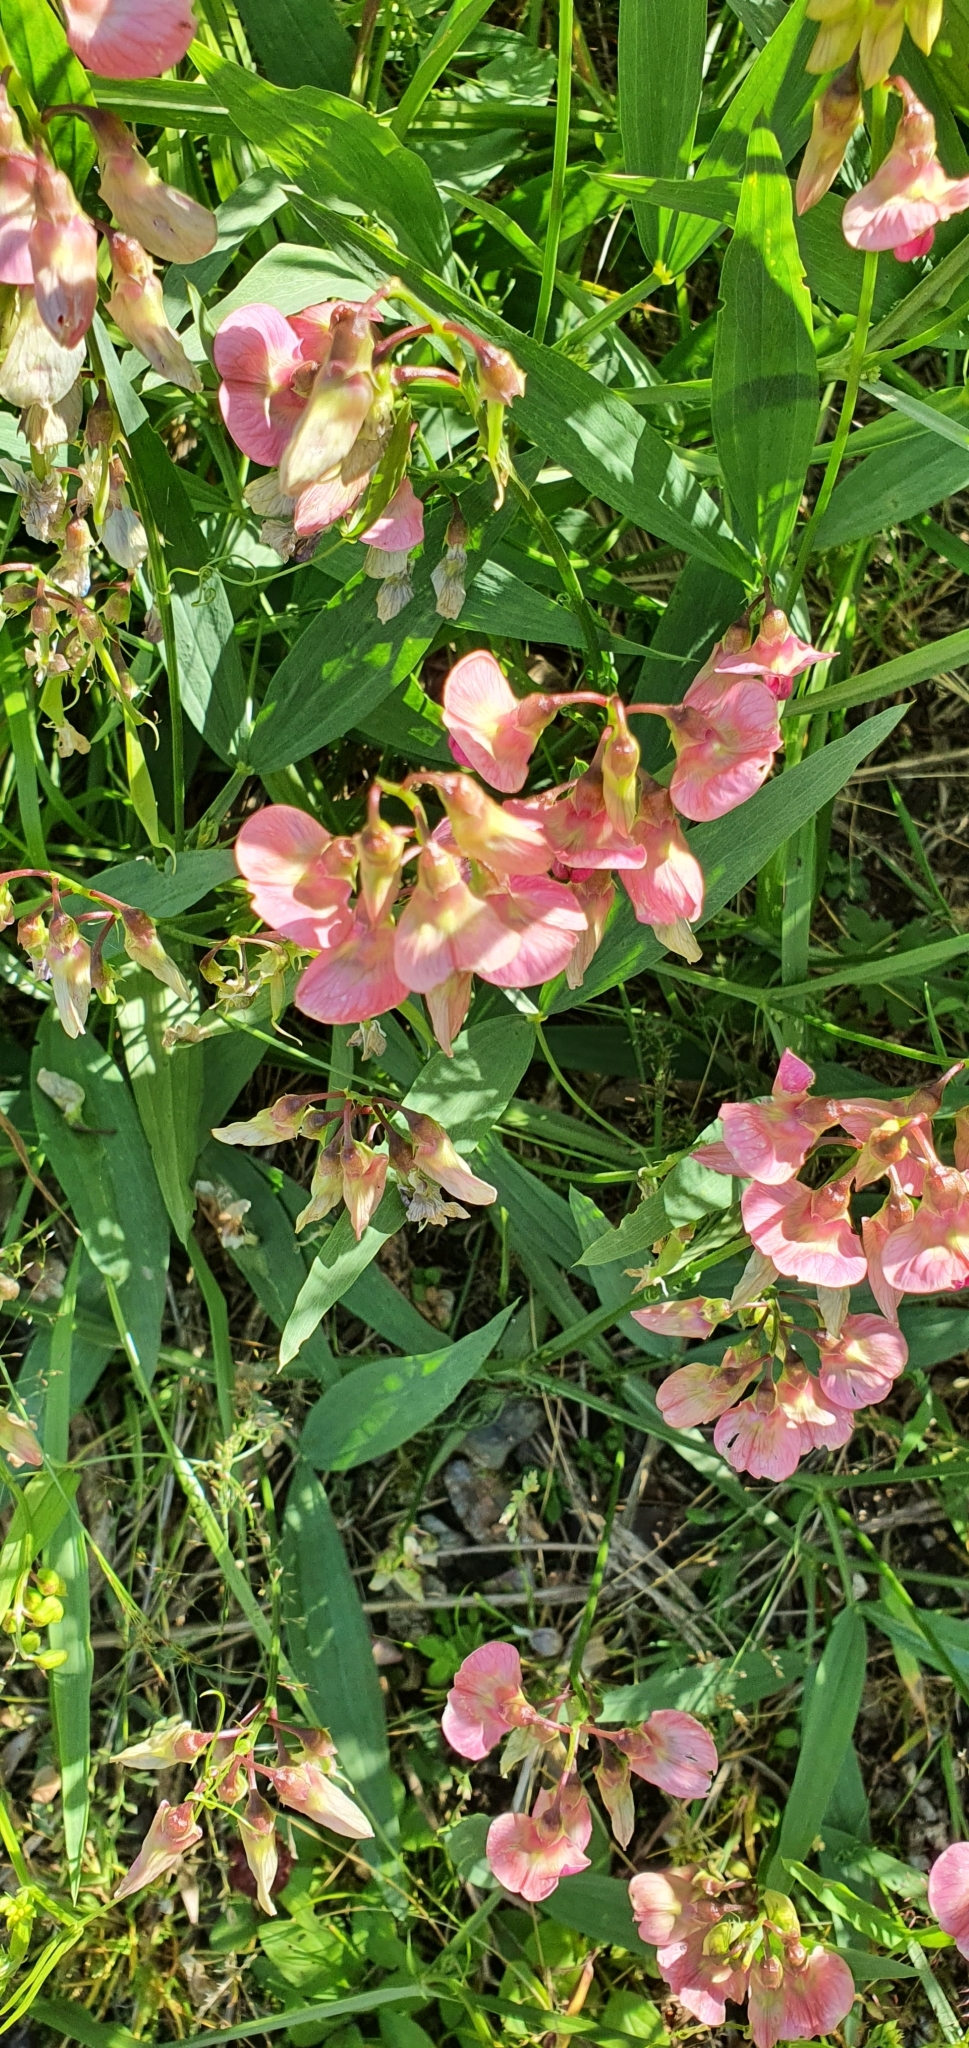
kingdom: Plantae
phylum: Tracheophyta
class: Magnoliopsida
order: Fabales
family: Fabaceae
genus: Lathyrus
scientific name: Lathyrus sylvestris
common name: Flat pea
